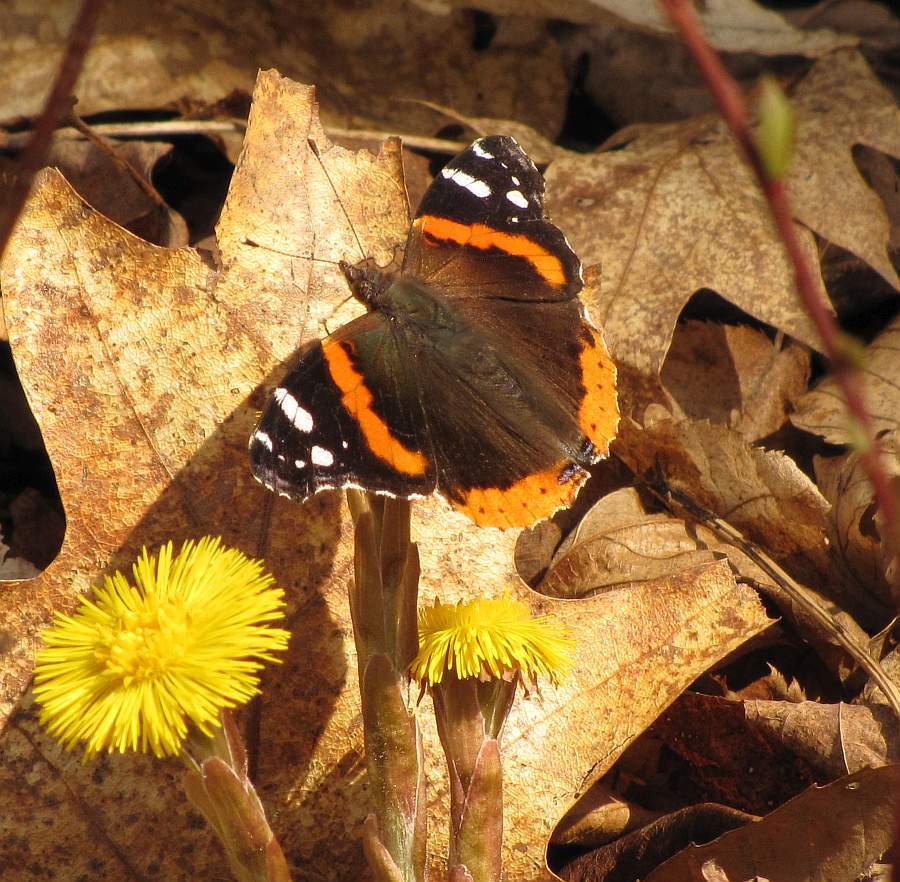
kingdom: Animalia
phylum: Arthropoda
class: Insecta
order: Lepidoptera
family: Nymphalidae
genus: Vanessa
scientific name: Vanessa atalanta
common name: Red admiral
